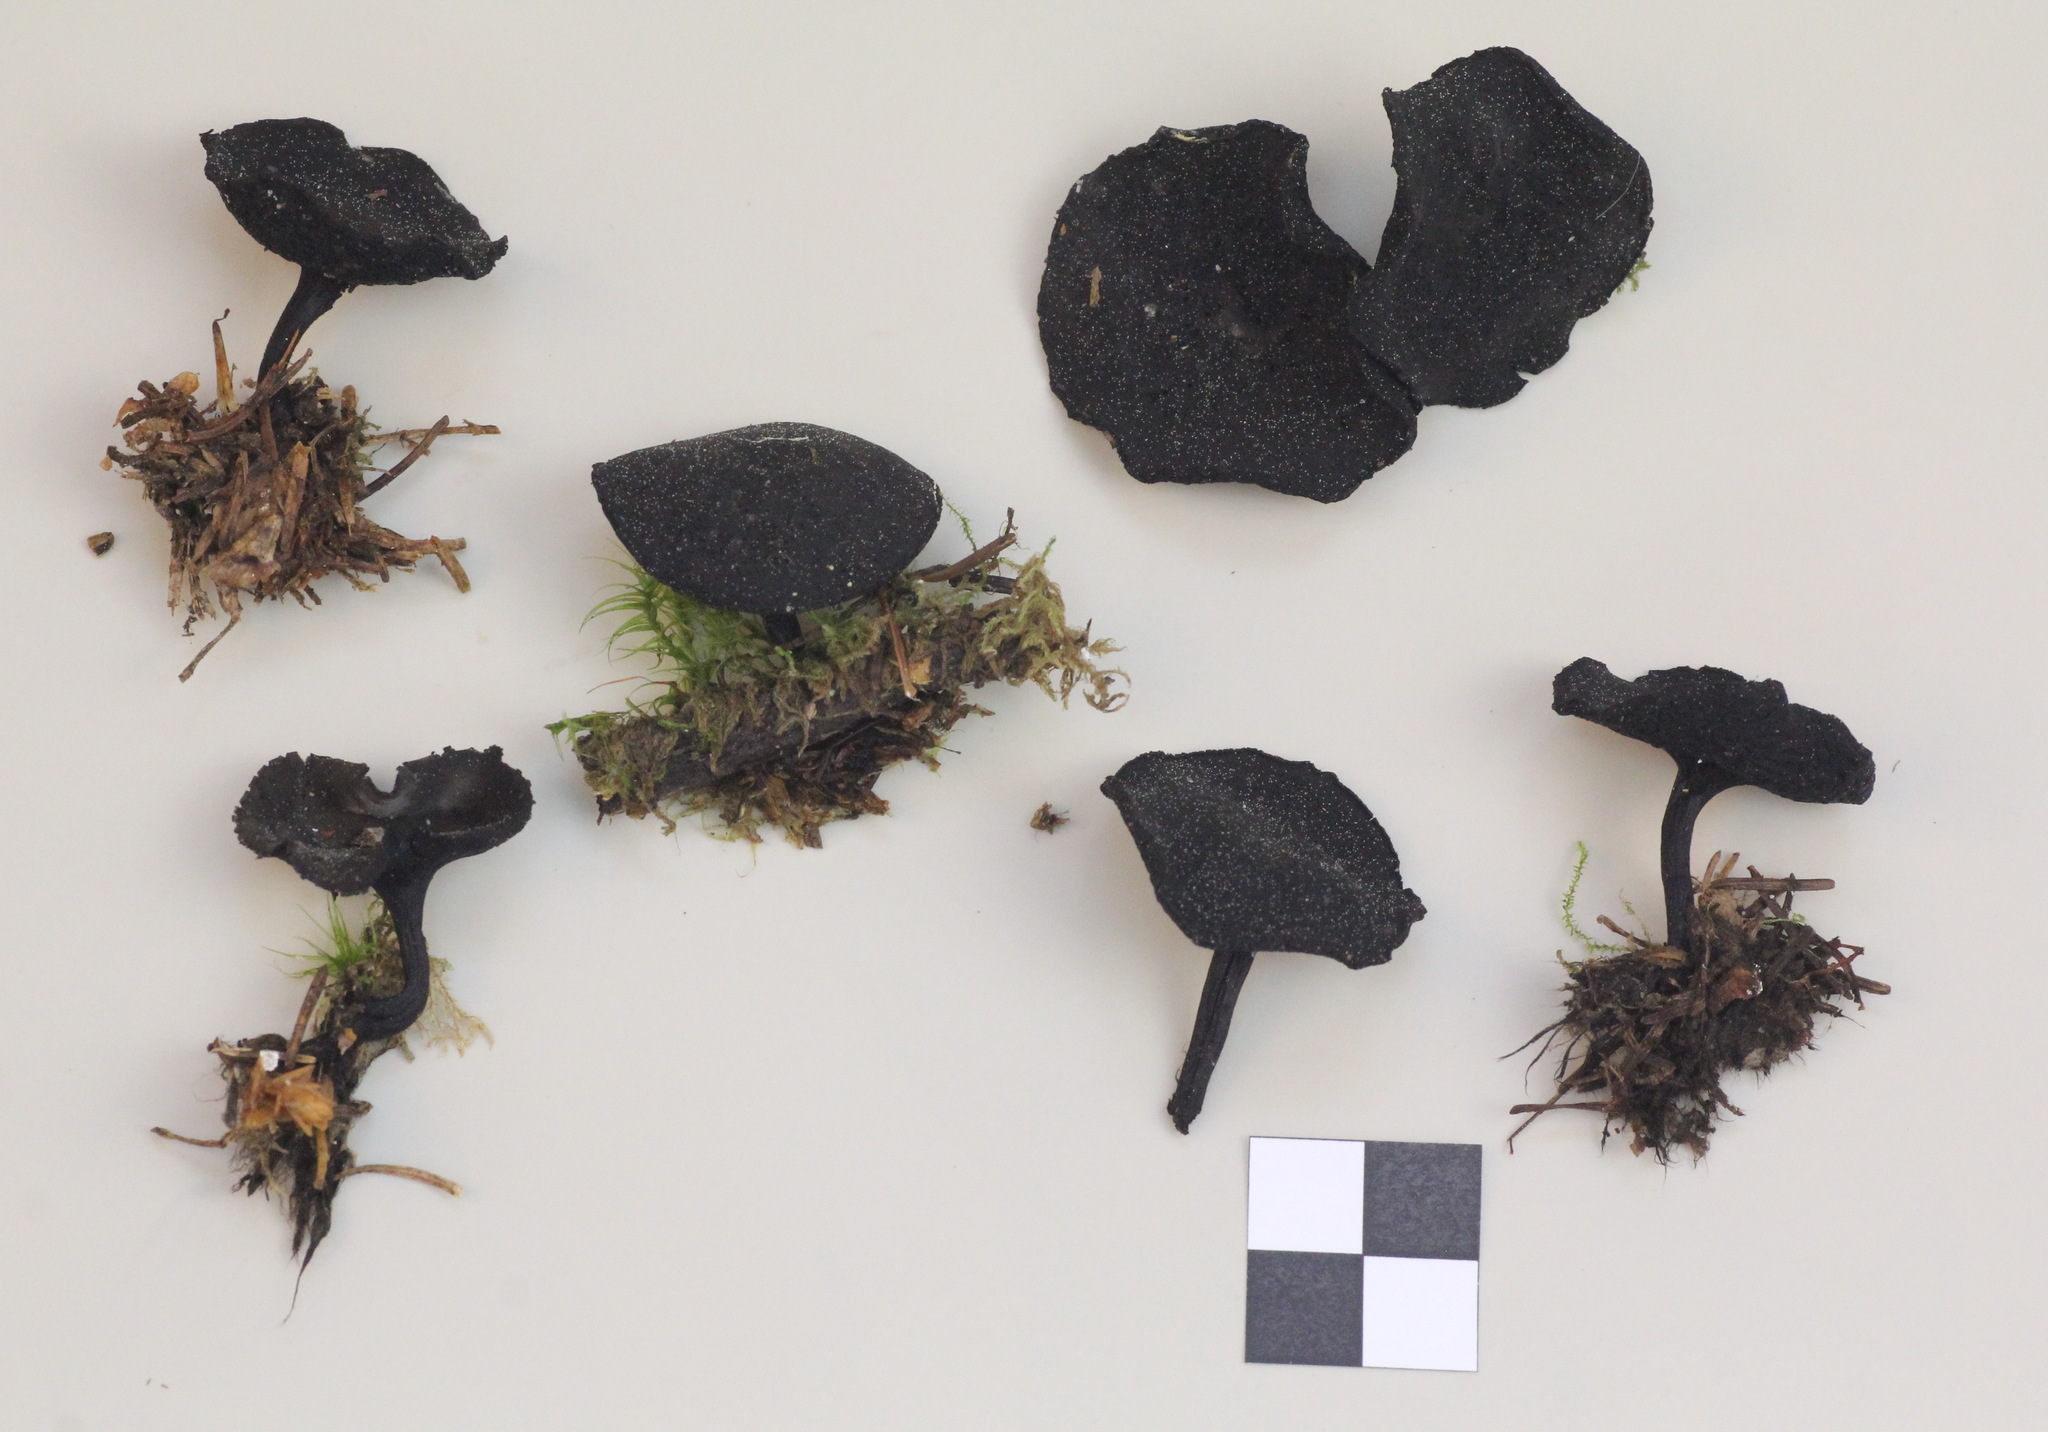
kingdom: Fungi
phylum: Ascomycota
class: Pezizomycetes
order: Pezizales
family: Sarcosomataceae
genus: Pseudoplectania
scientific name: Pseudoplectania melaena
